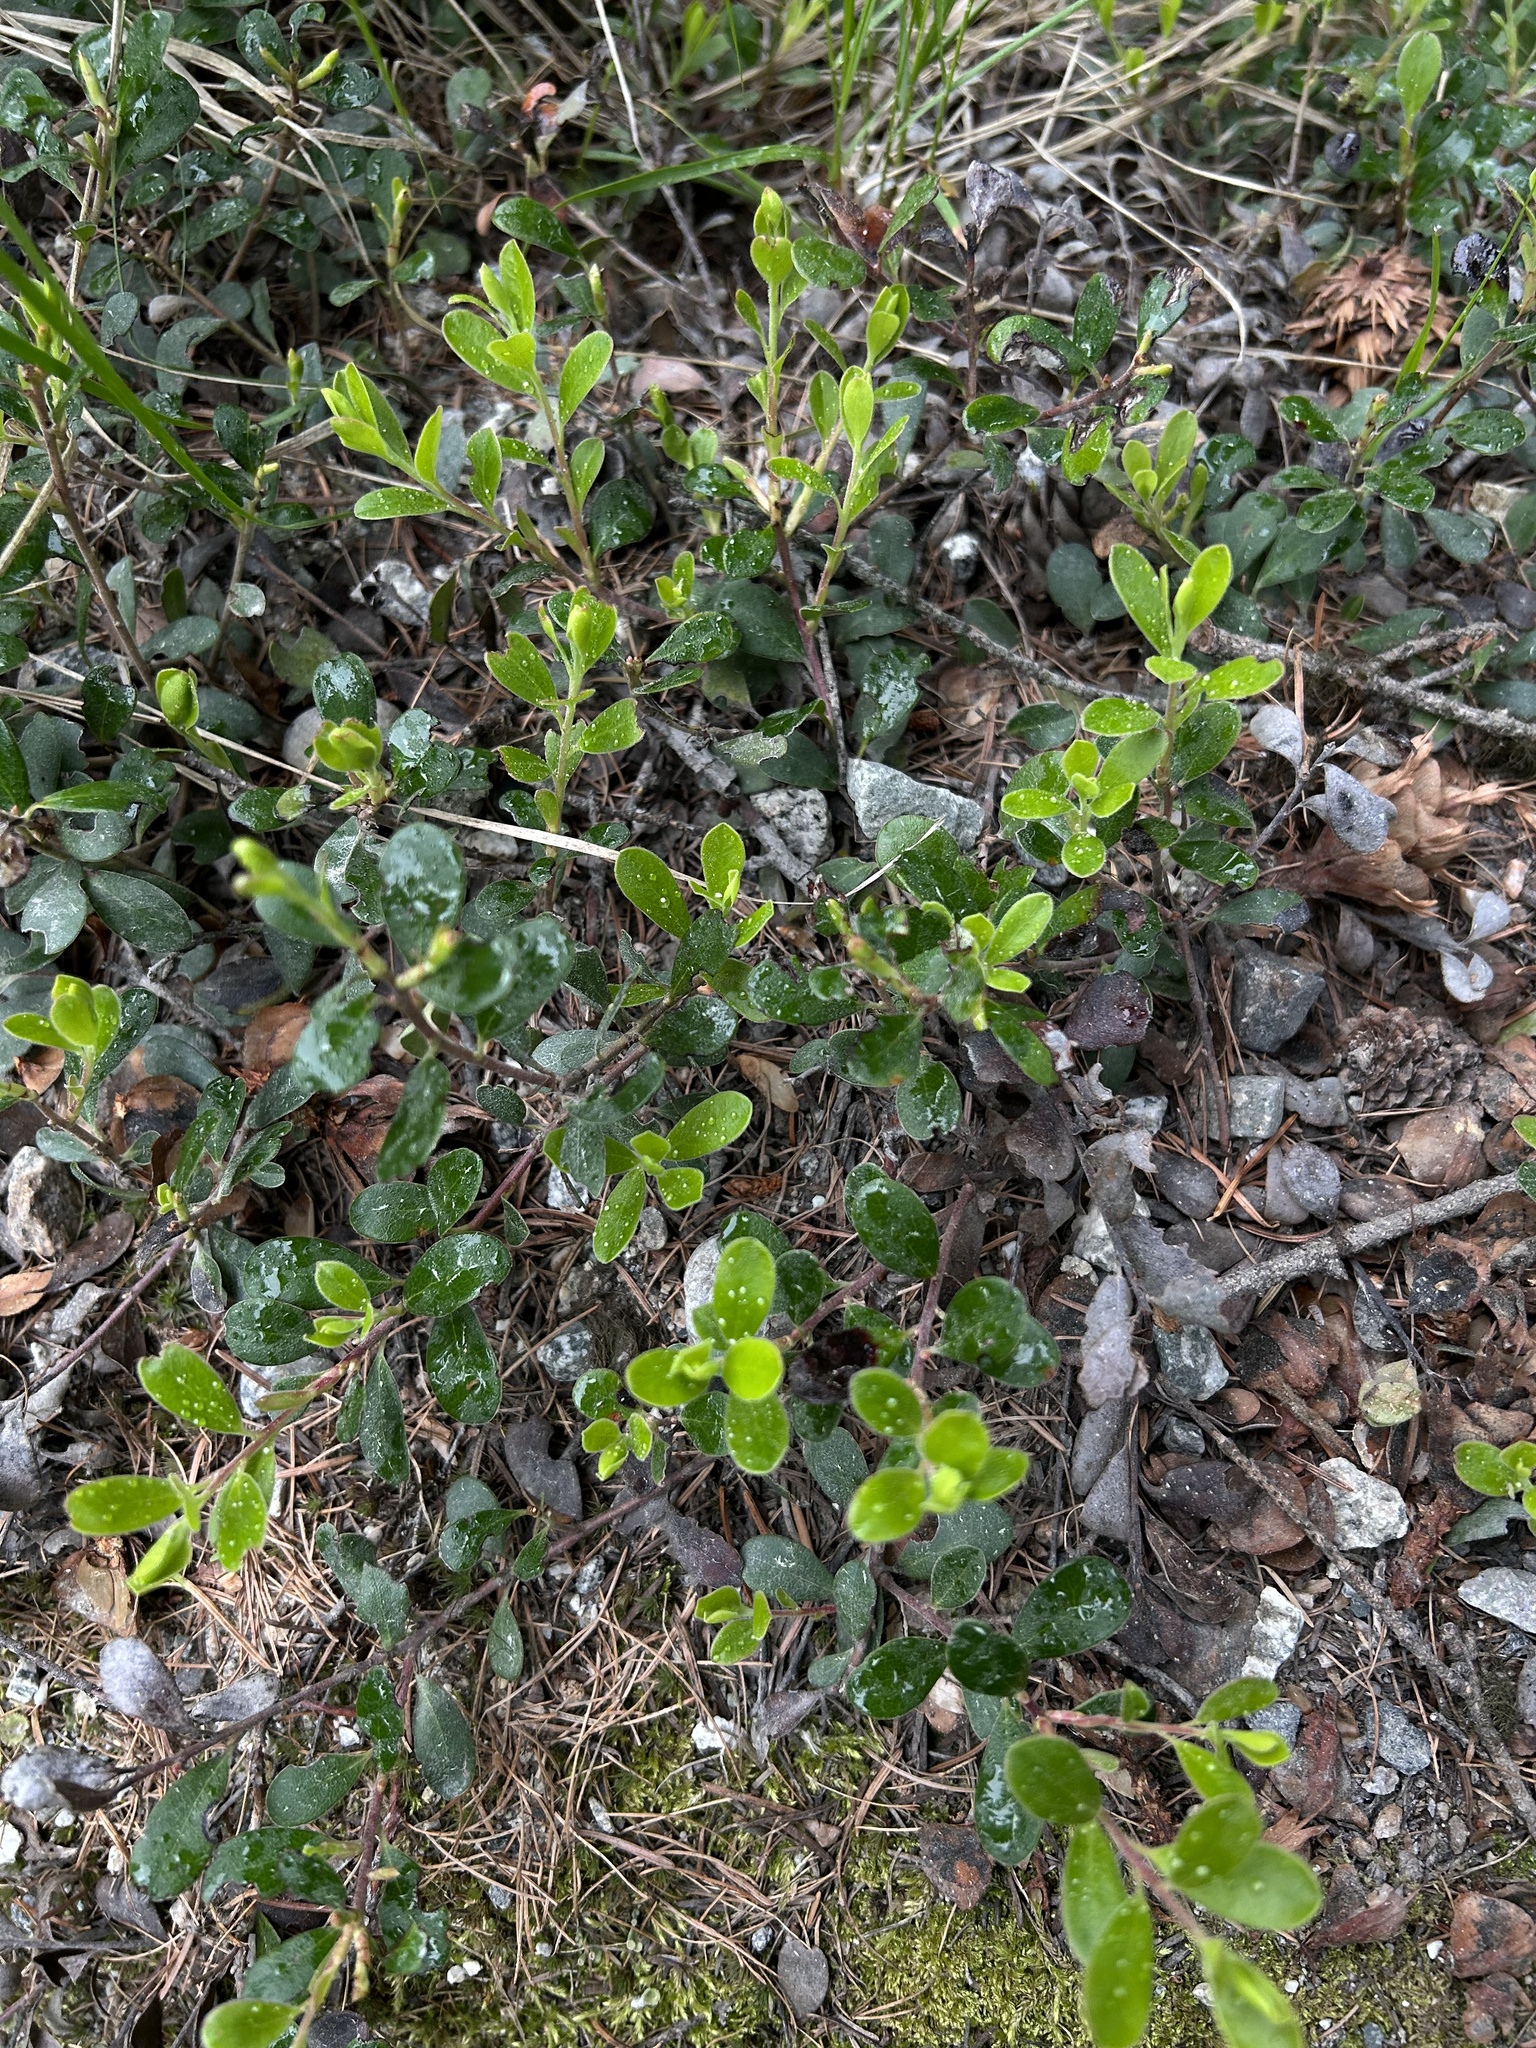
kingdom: Plantae
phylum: Tracheophyta
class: Magnoliopsida
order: Ericales
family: Ericaceae
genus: Arctostaphylos
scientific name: Arctostaphylos uva-ursi
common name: Bearberry
